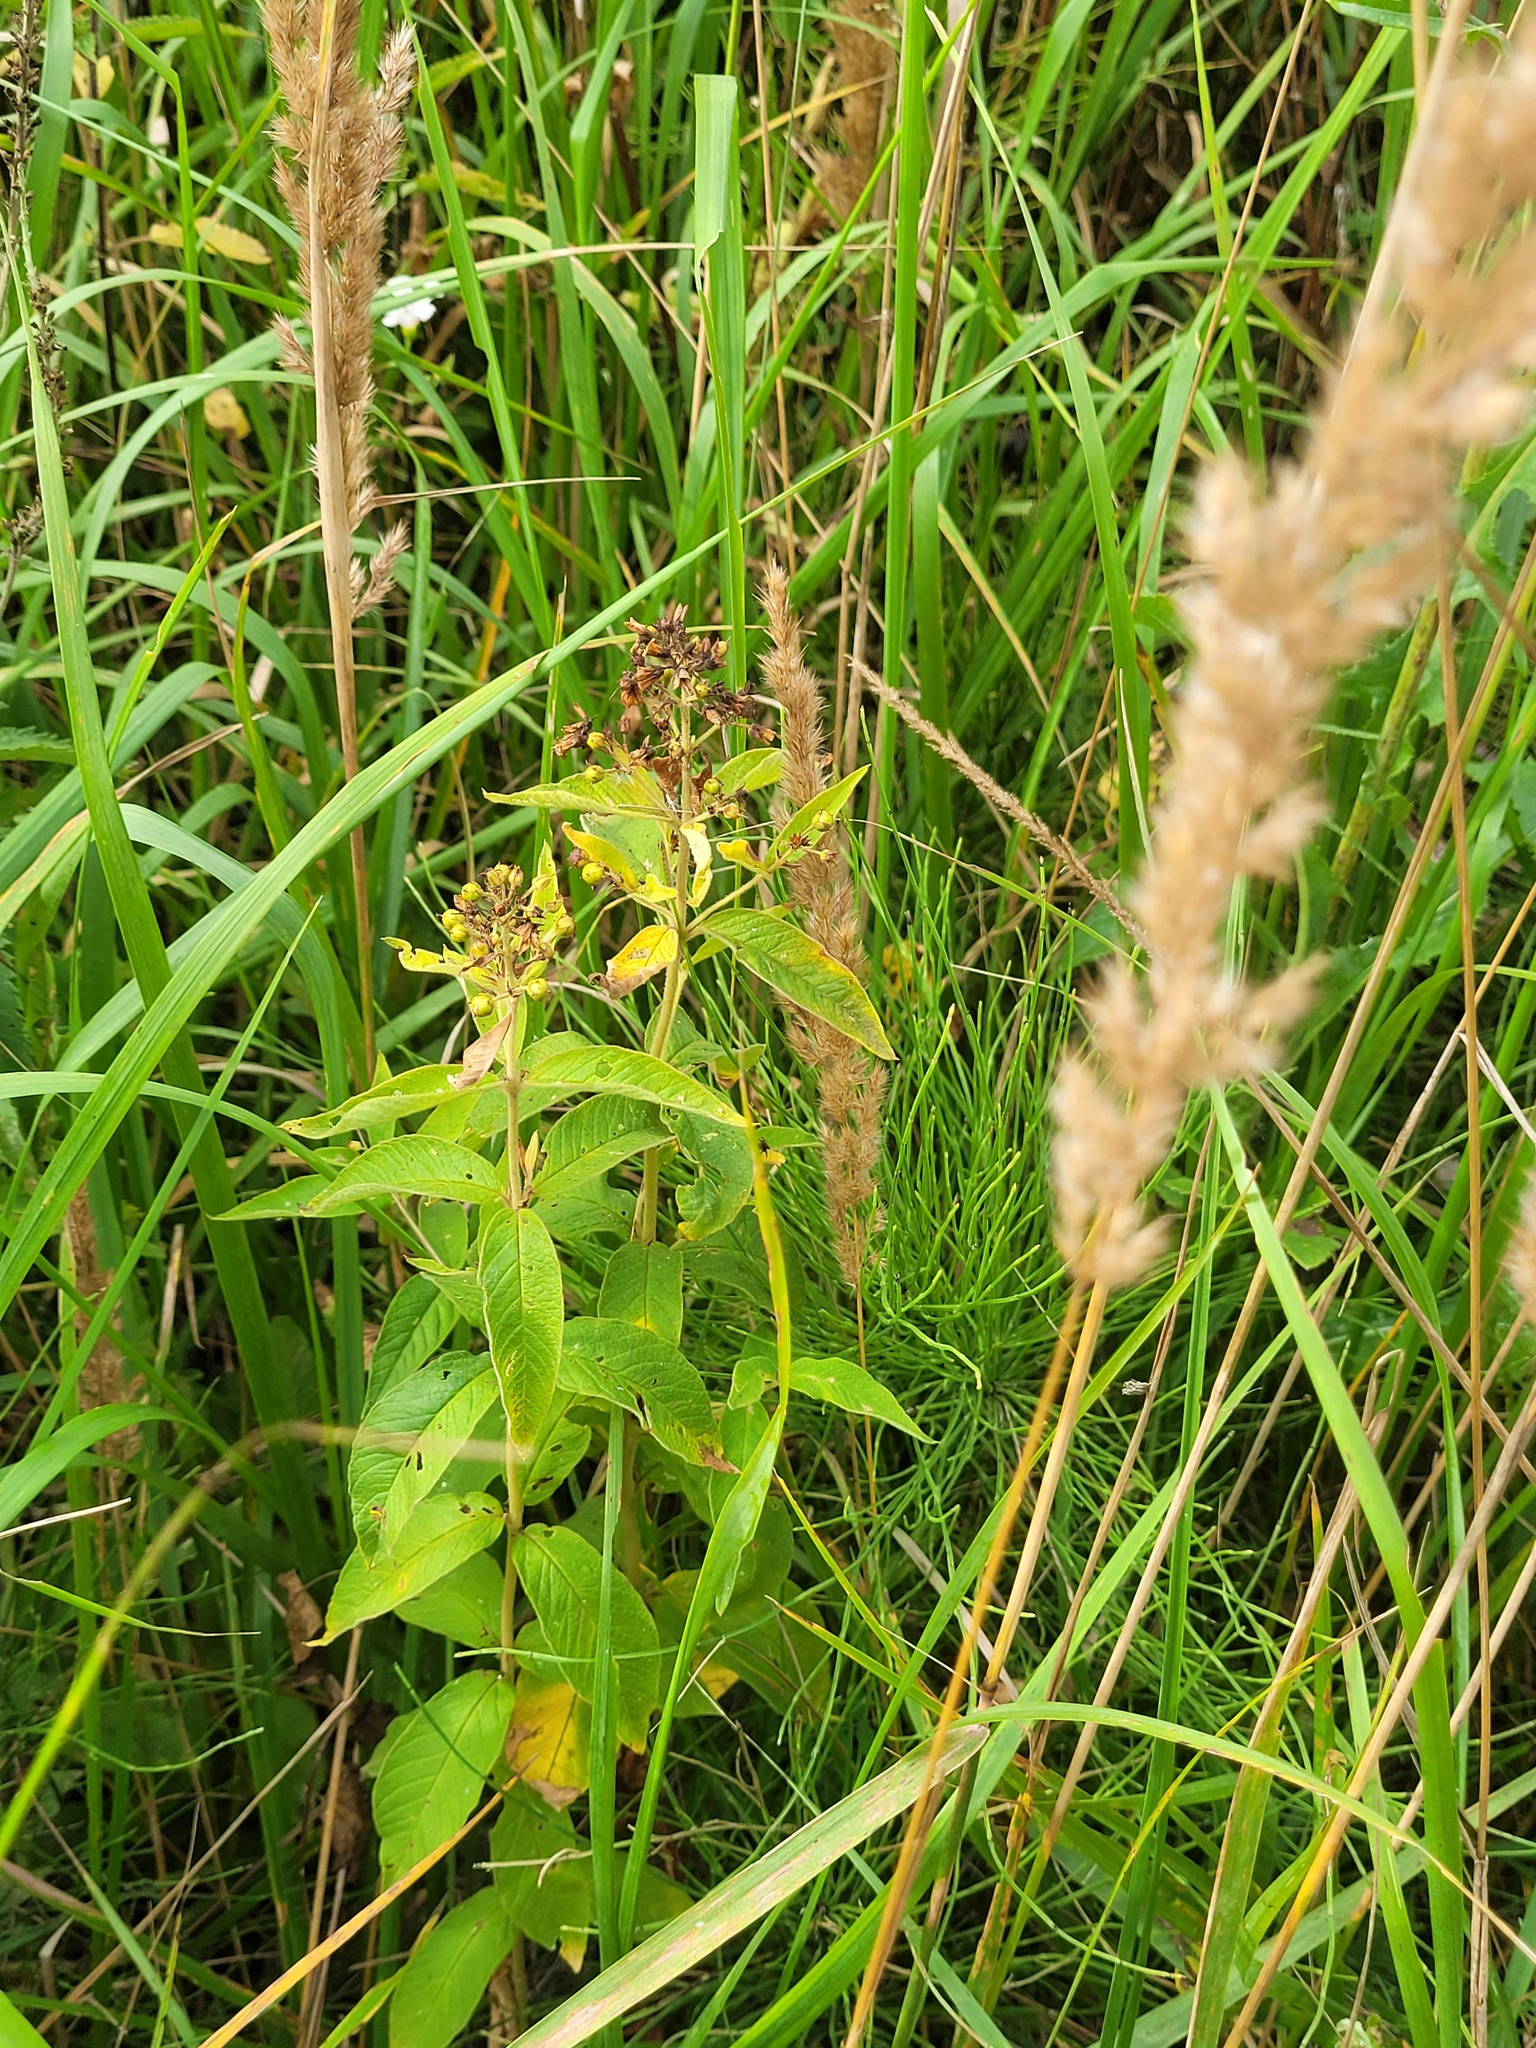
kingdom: Plantae
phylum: Tracheophyta
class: Magnoliopsida
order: Ericales
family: Primulaceae
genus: Lysimachia
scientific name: Lysimachia vulgaris
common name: Yellow loosestrife
